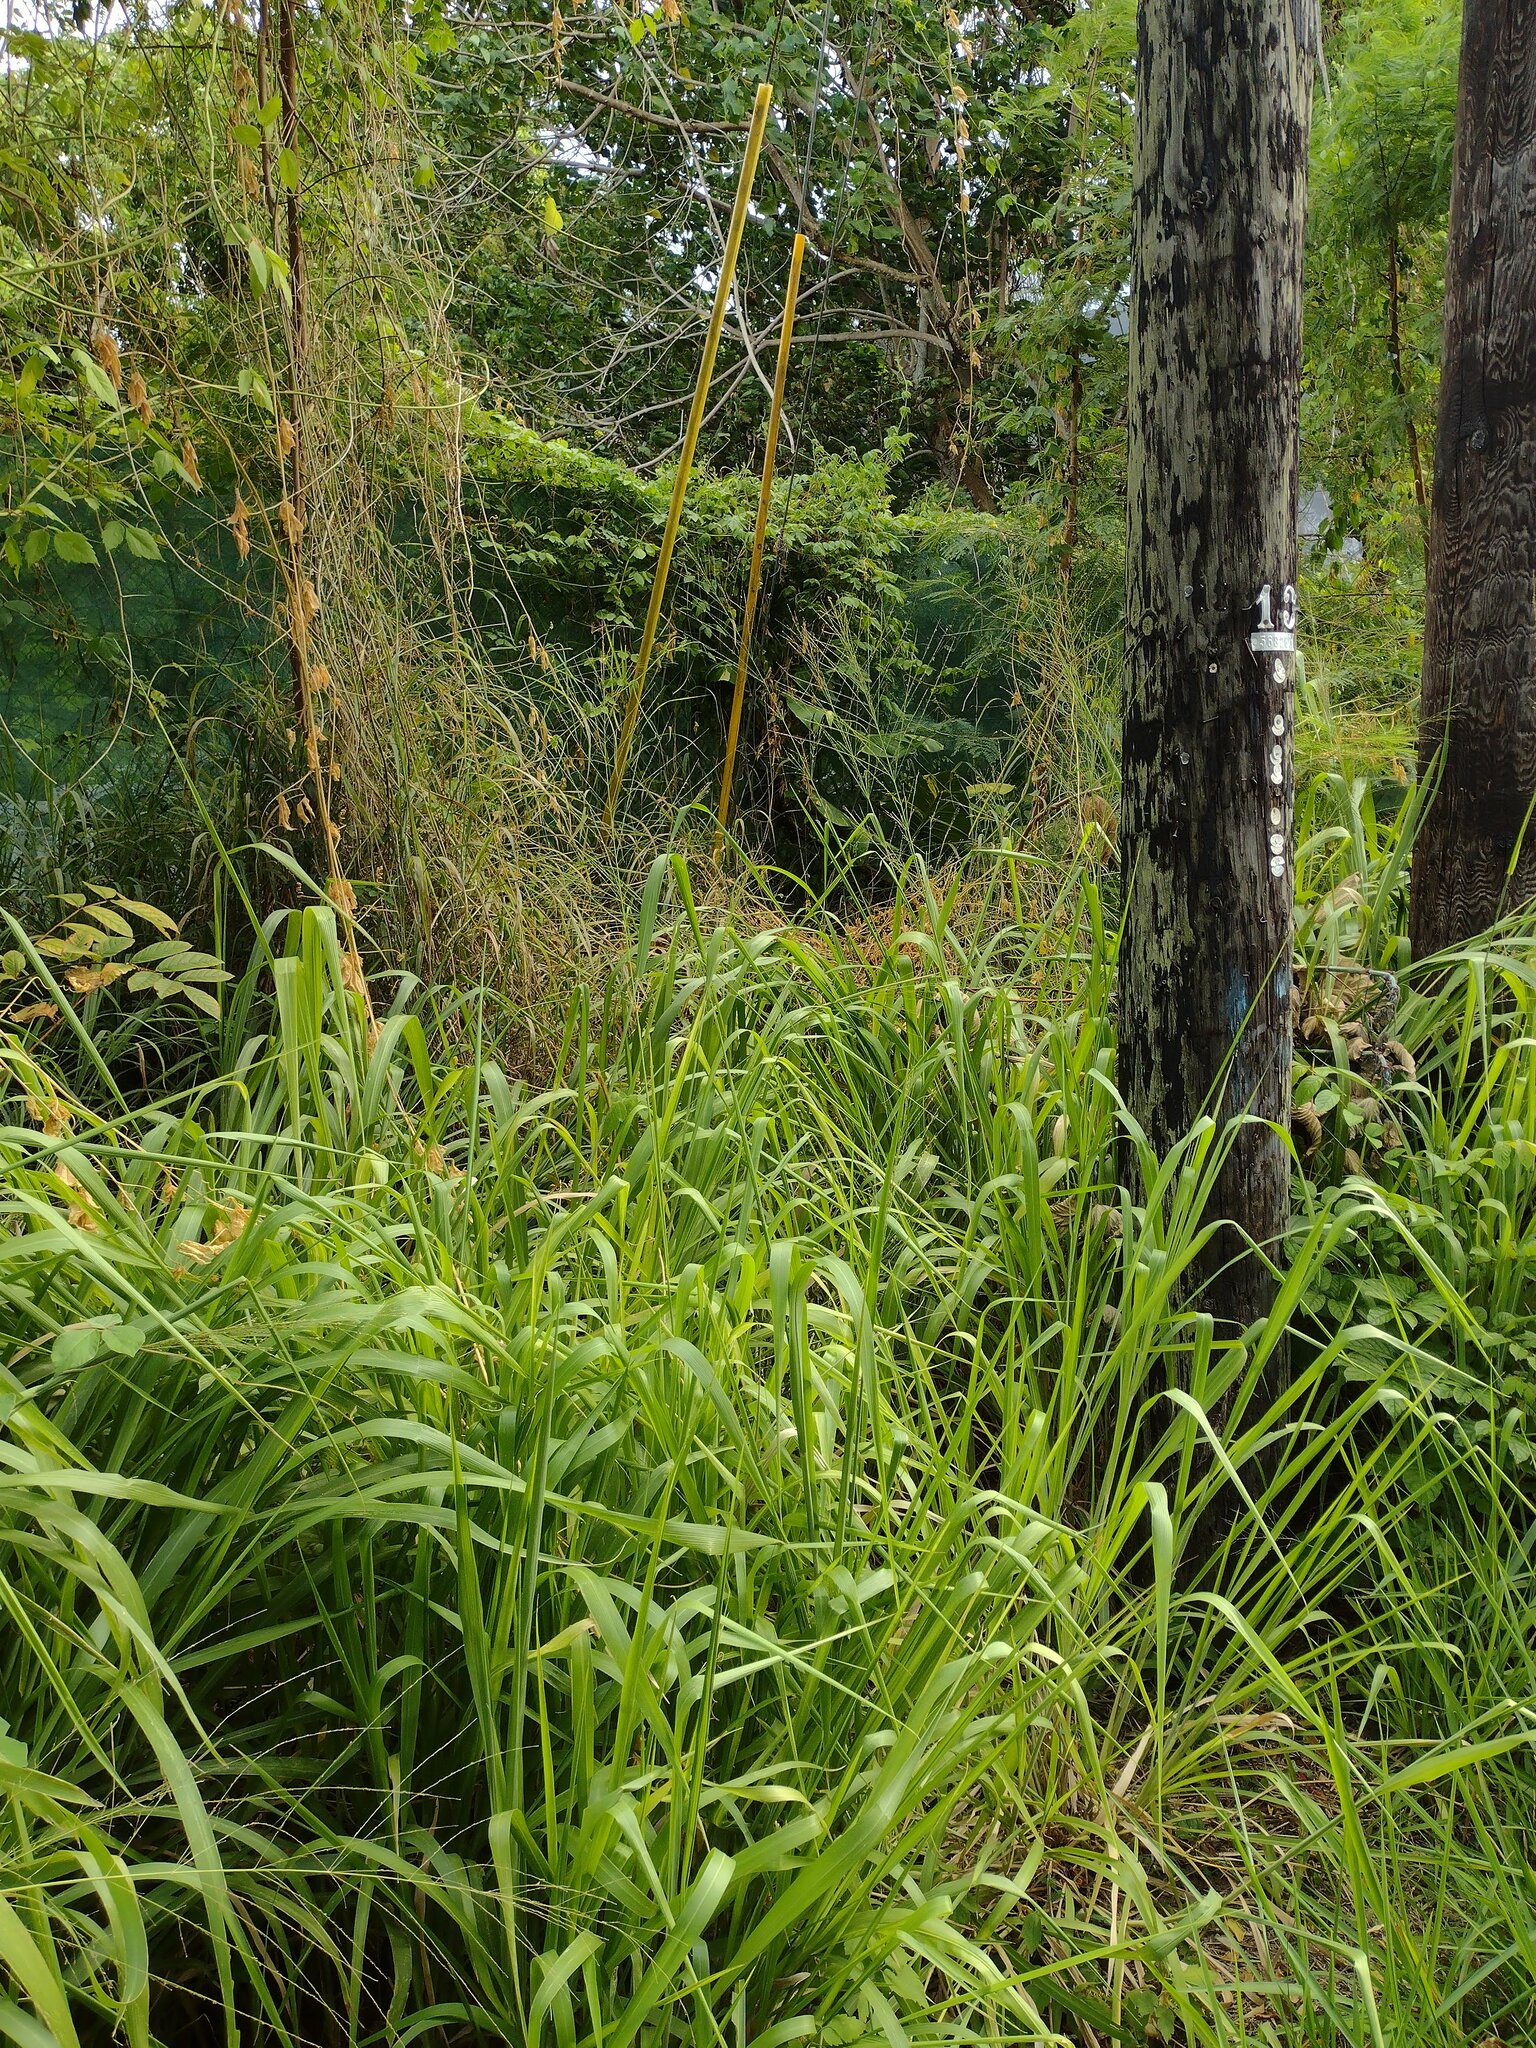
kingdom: Plantae
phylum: Tracheophyta
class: Liliopsida
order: Poales
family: Poaceae
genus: Megathyrsus
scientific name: Megathyrsus maximus
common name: Guineagrass
